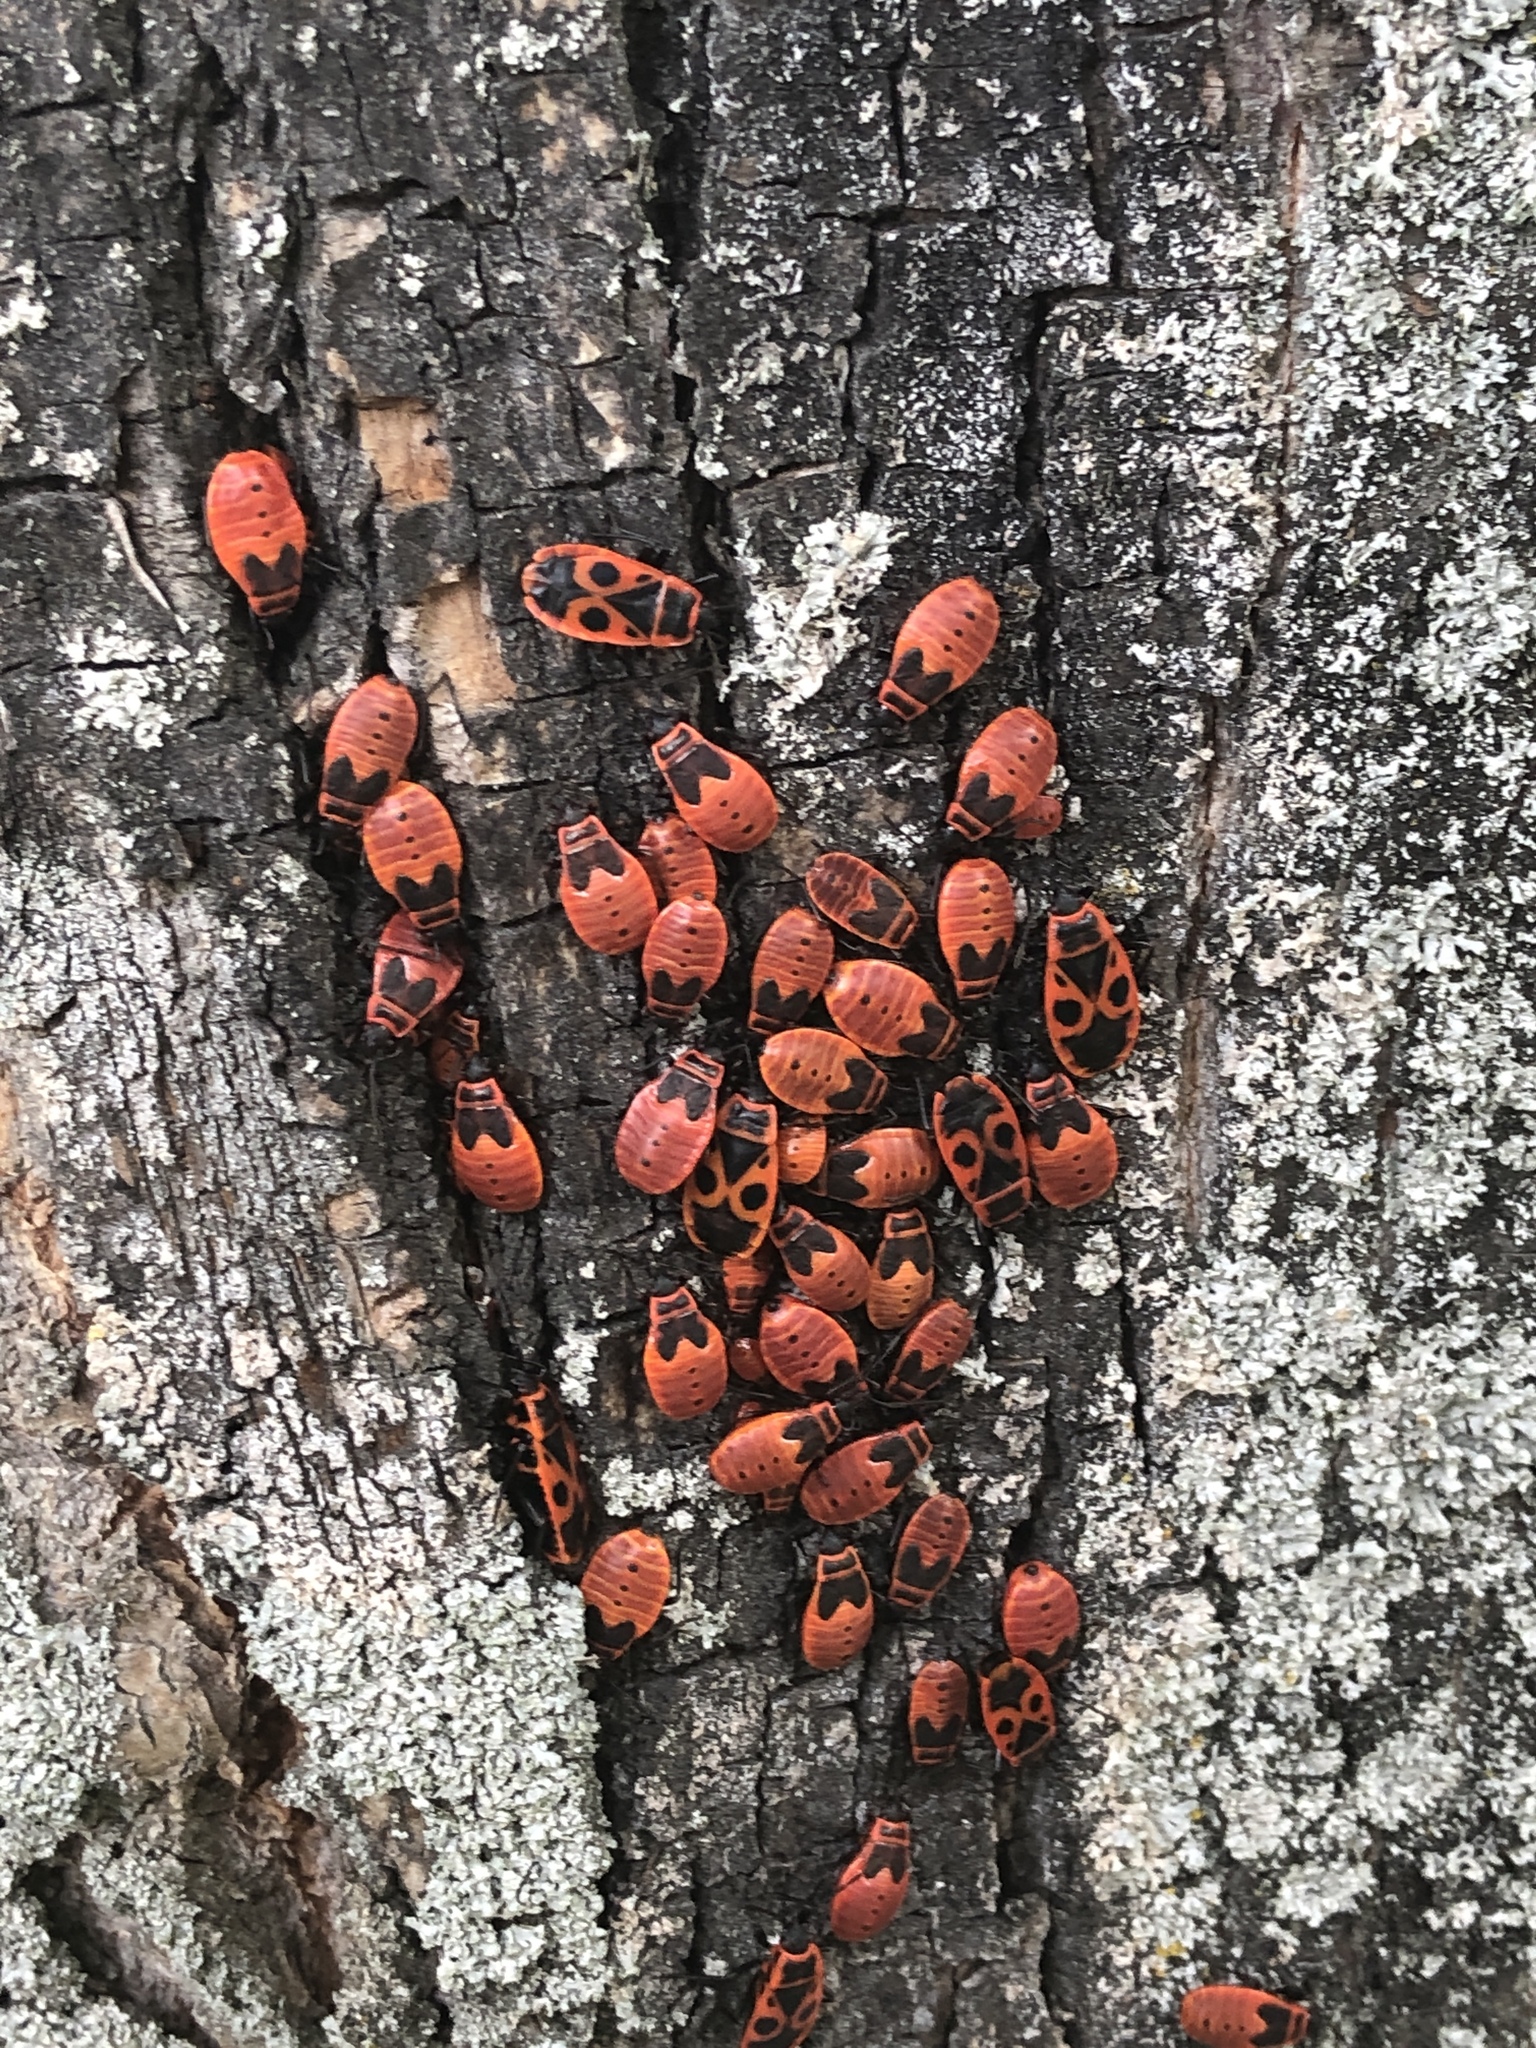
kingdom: Animalia
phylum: Arthropoda
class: Insecta
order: Hemiptera
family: Pyrrhocoridae
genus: Pyrrhocoris
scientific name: Pyrrhocoris apterus
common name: Firebug
